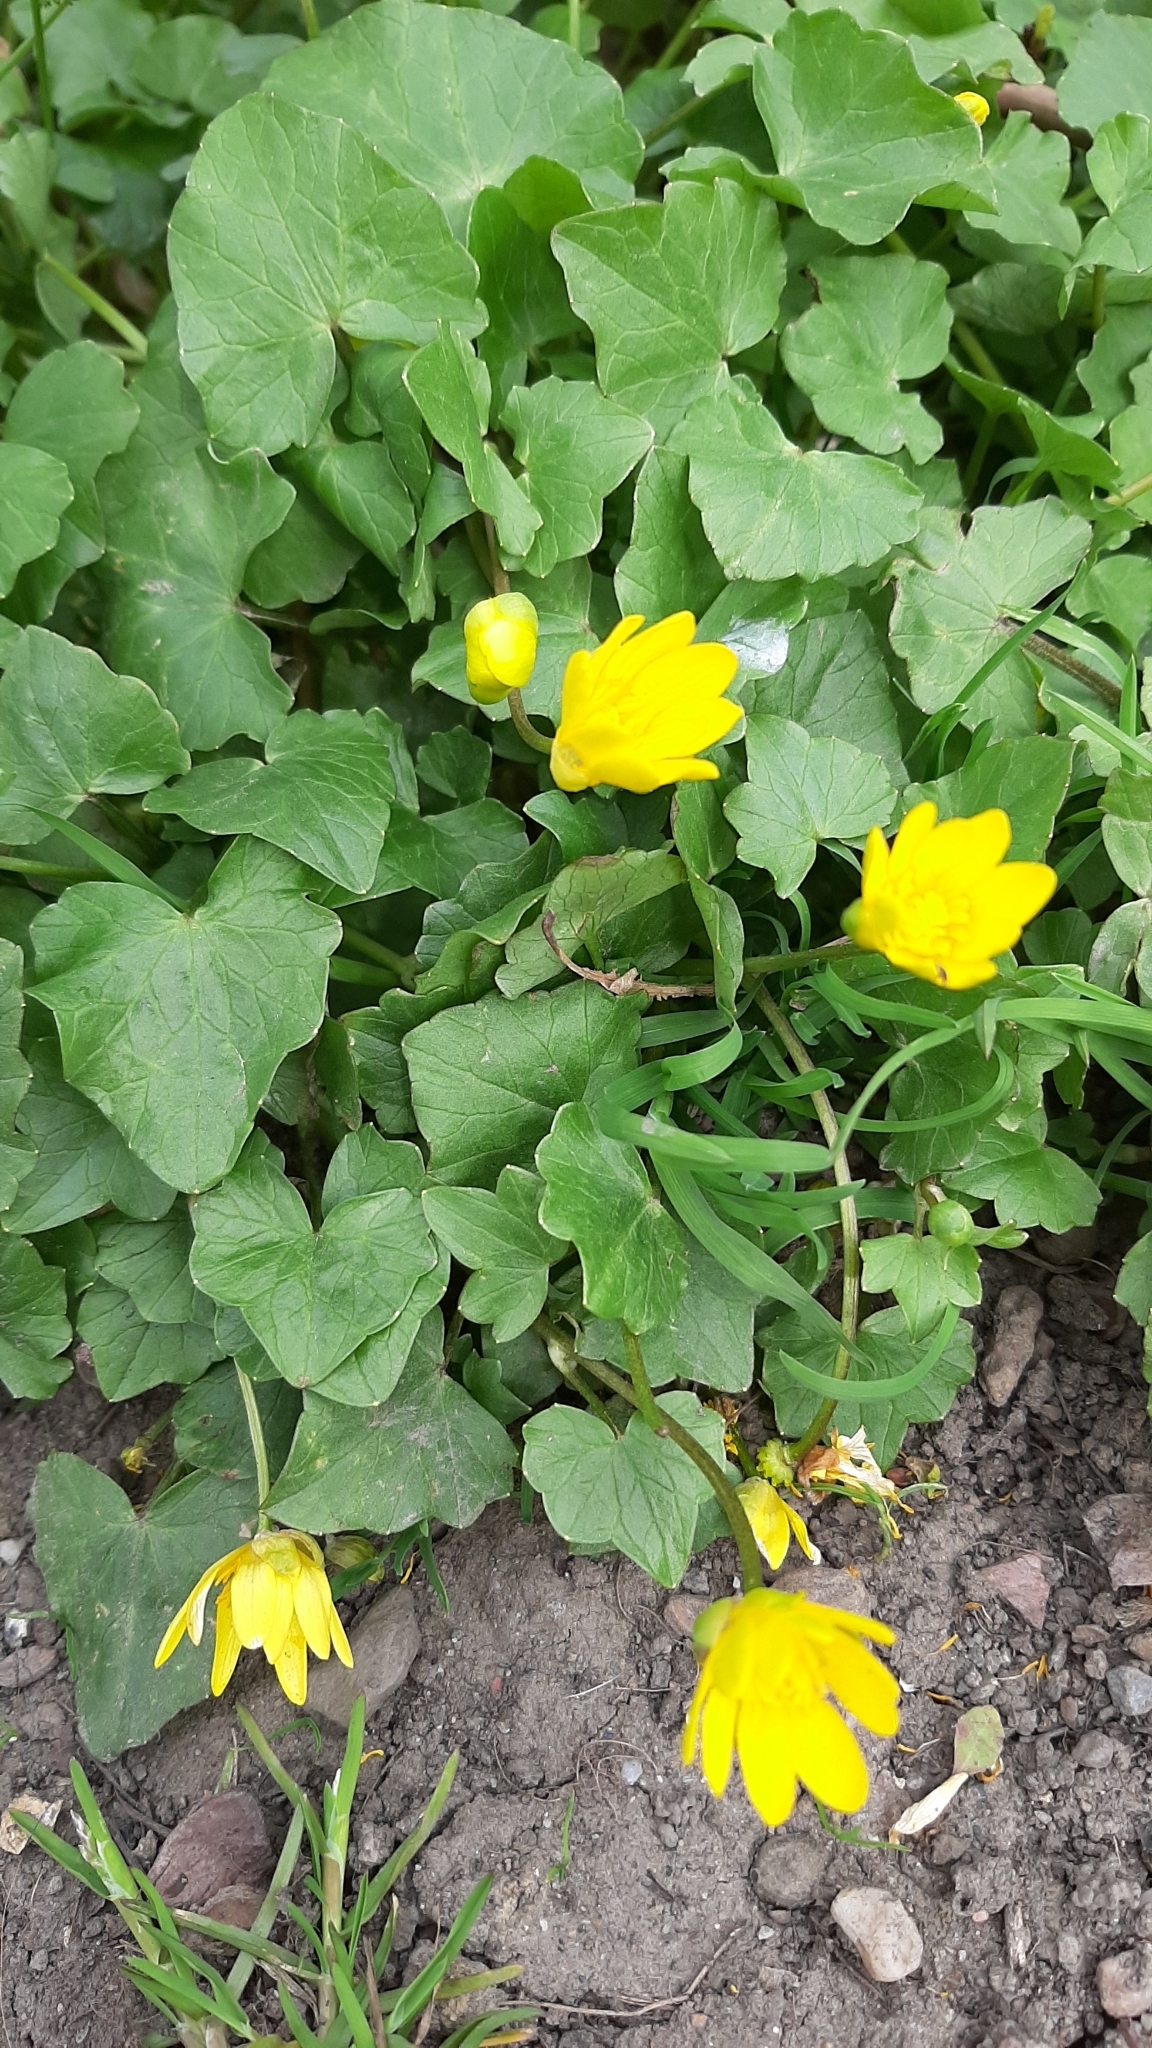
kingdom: Plantae
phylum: Tracheophyta
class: Magnoliopsida
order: Ranunculales
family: Ranunculaceae
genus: Ficaria
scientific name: Ficaria verna
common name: Lesser celandine
